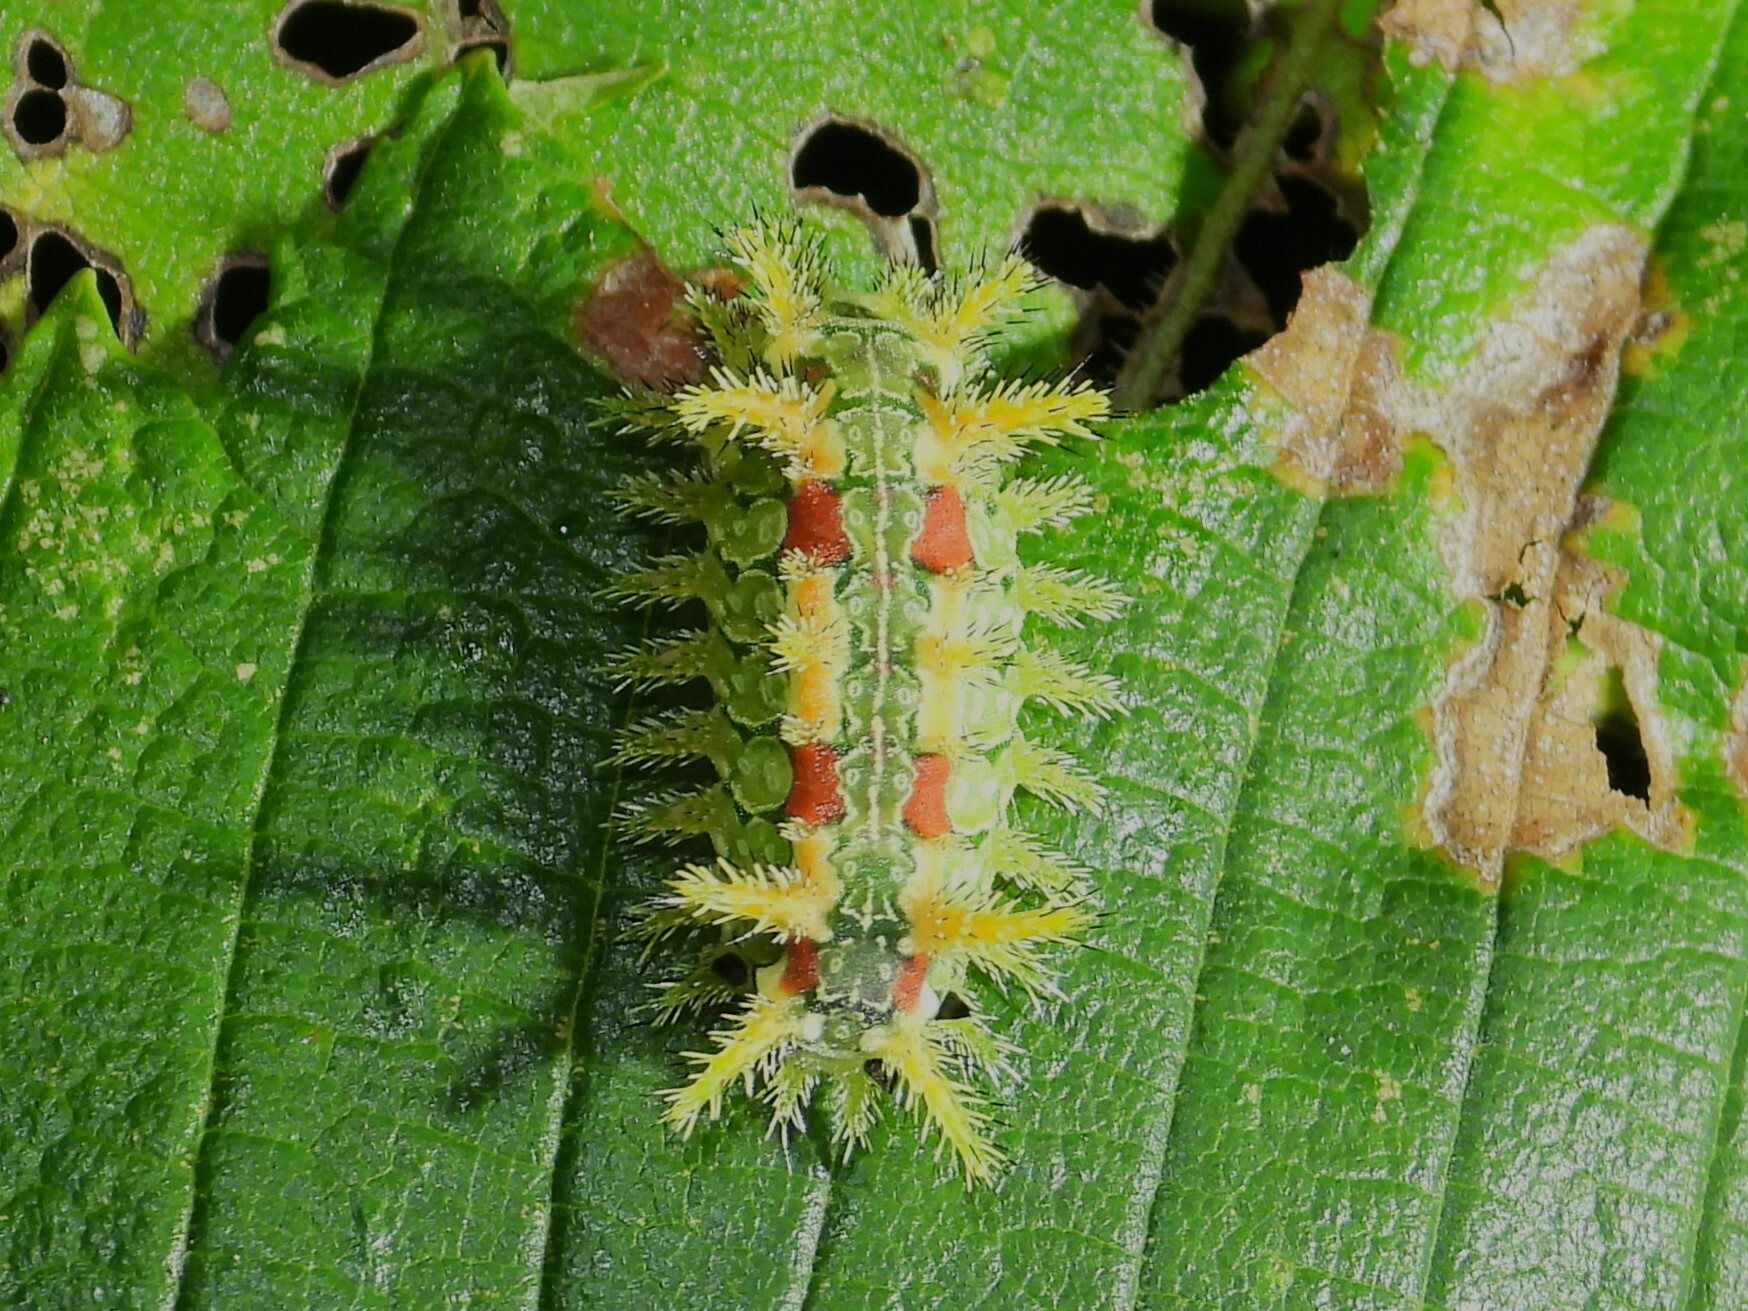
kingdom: Animalia
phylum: Arthropoda
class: Insecta
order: Lepidoptera
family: Limacodidae
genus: Euclea
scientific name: Euclea delphinii
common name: Spiny oak-slug moth
